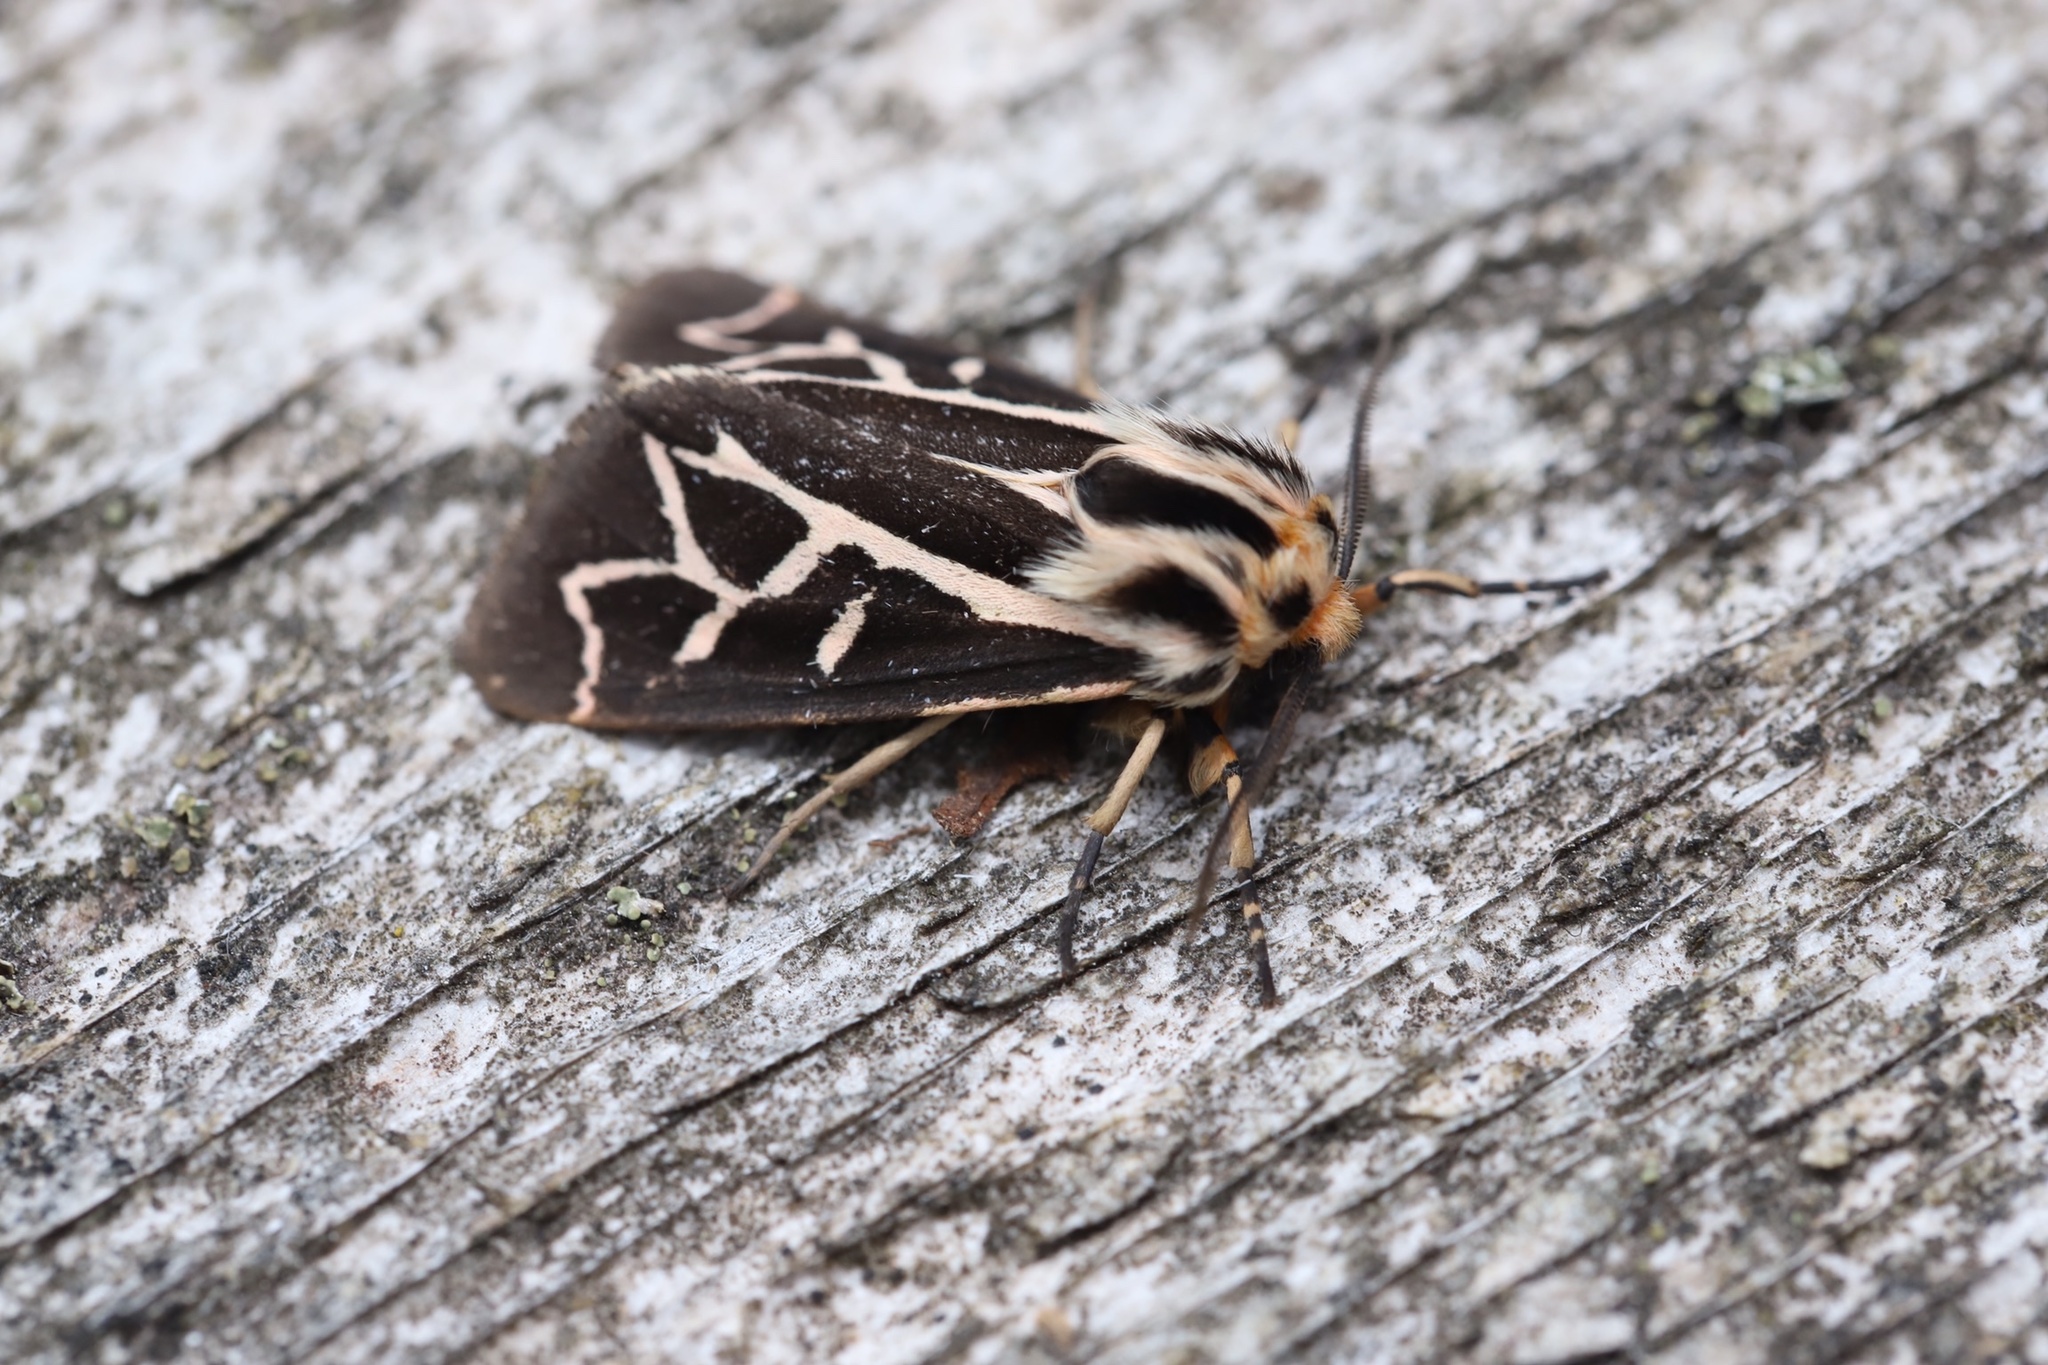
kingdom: Animalia
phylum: Arthropoda
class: Insecta
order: Lepidoptera
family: Erebidae
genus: Apantesis
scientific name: Apantesis
